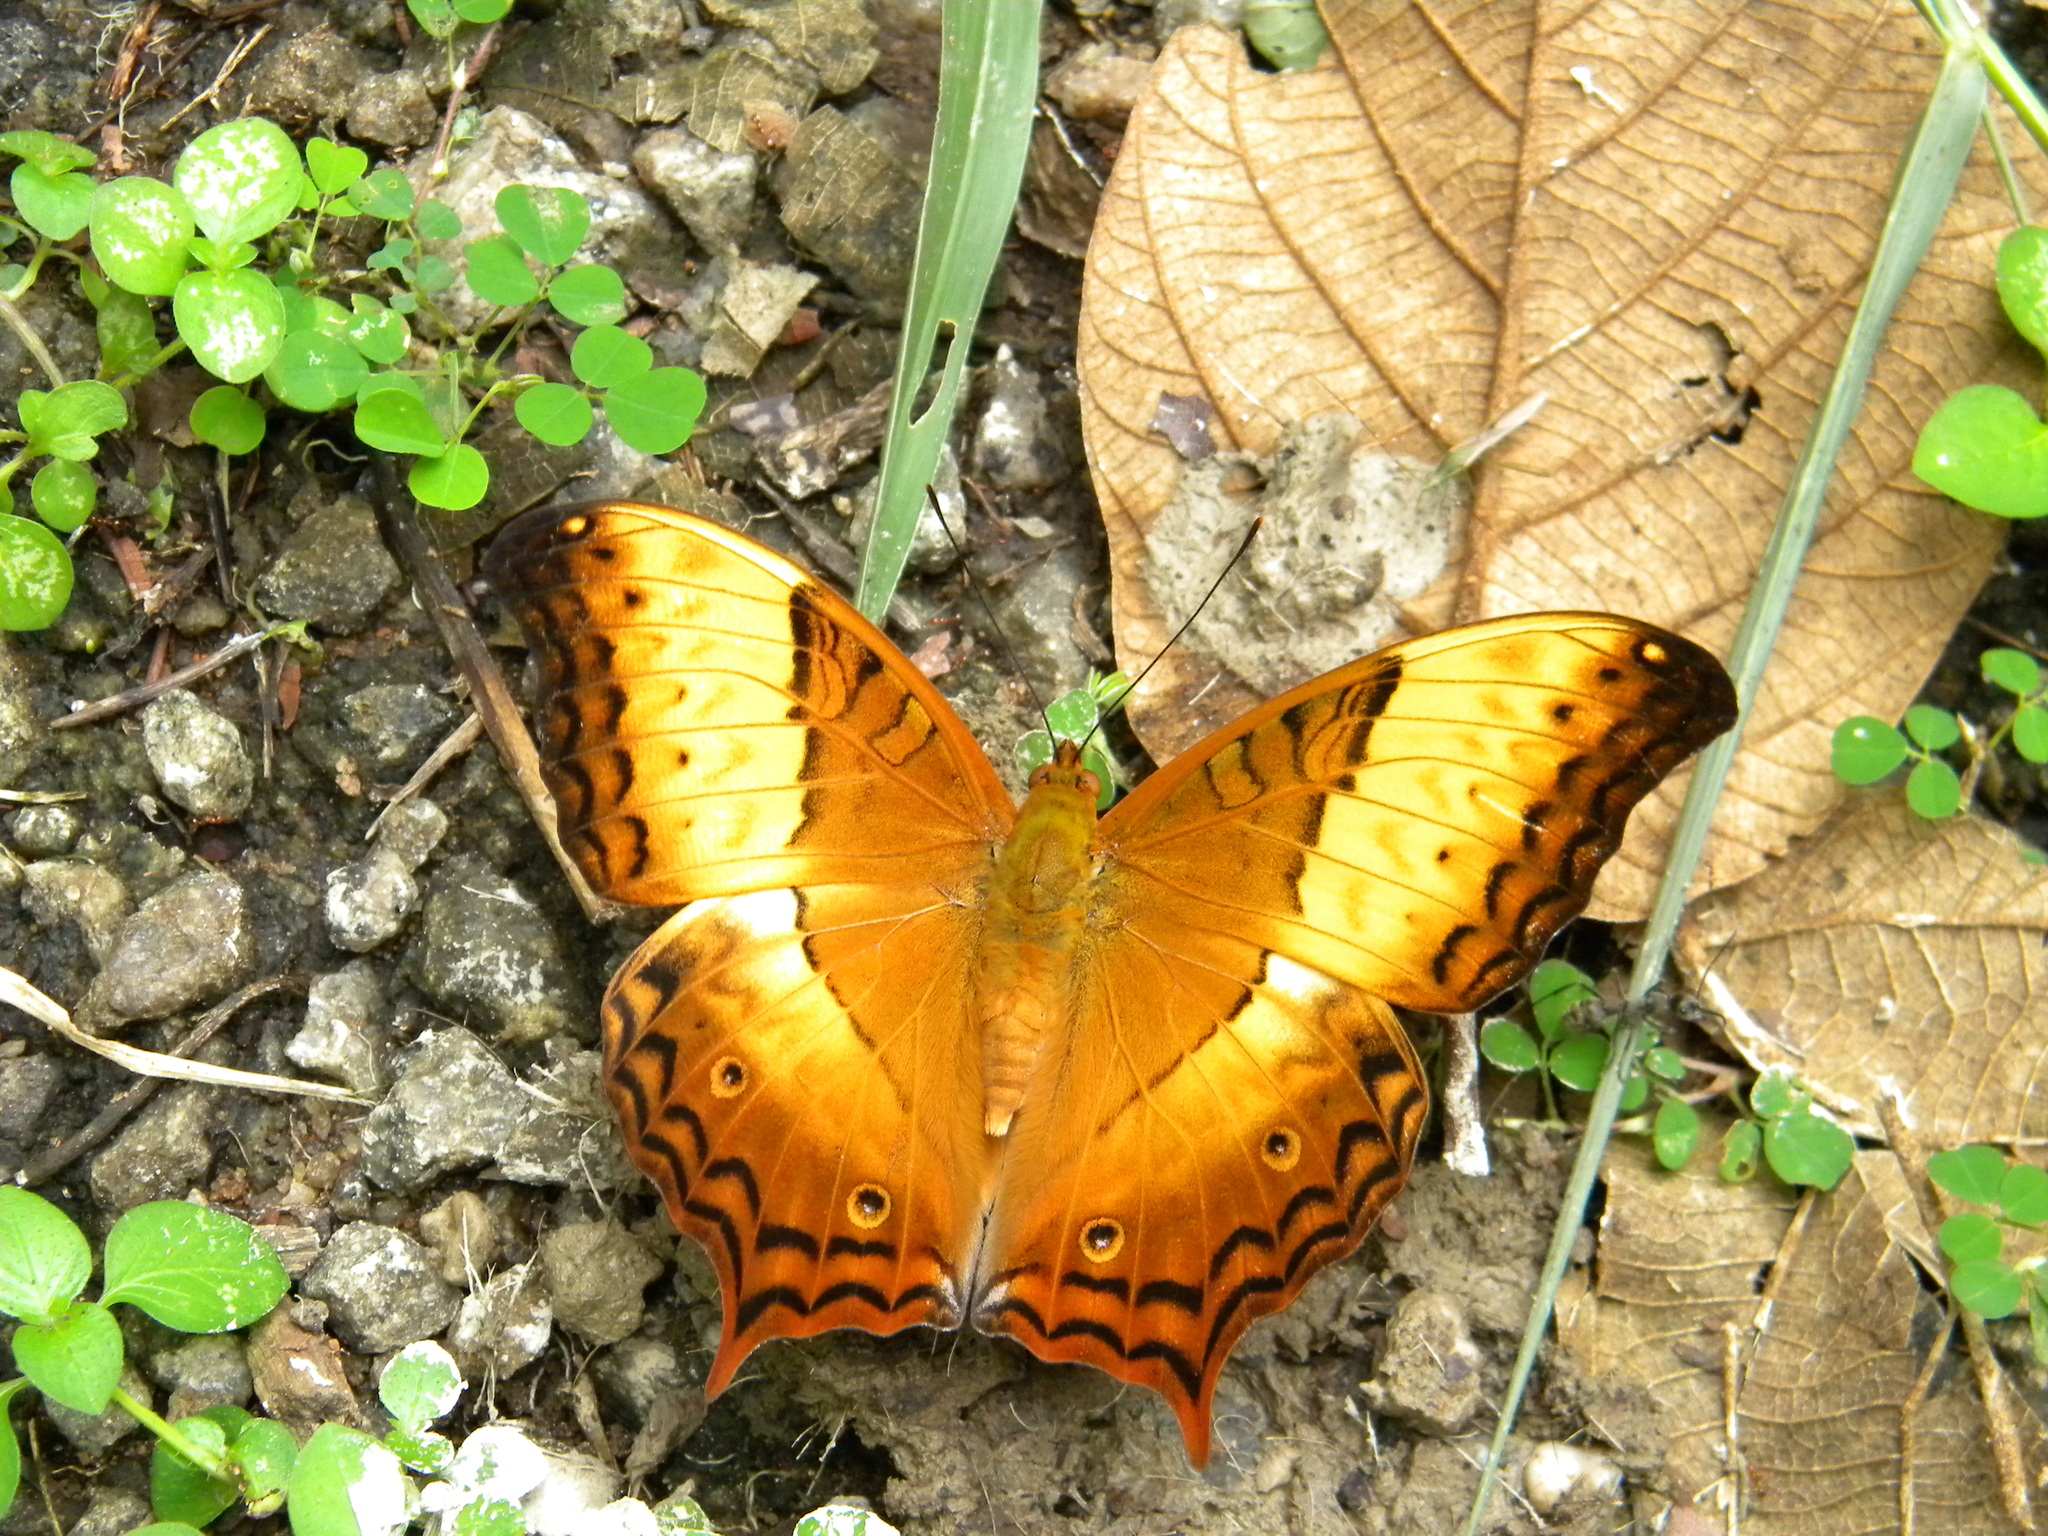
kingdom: Animalia
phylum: Arthropoda
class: Insecta
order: Lepidoptera
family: Nymphalidae
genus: Vindula
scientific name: Vindula erota
